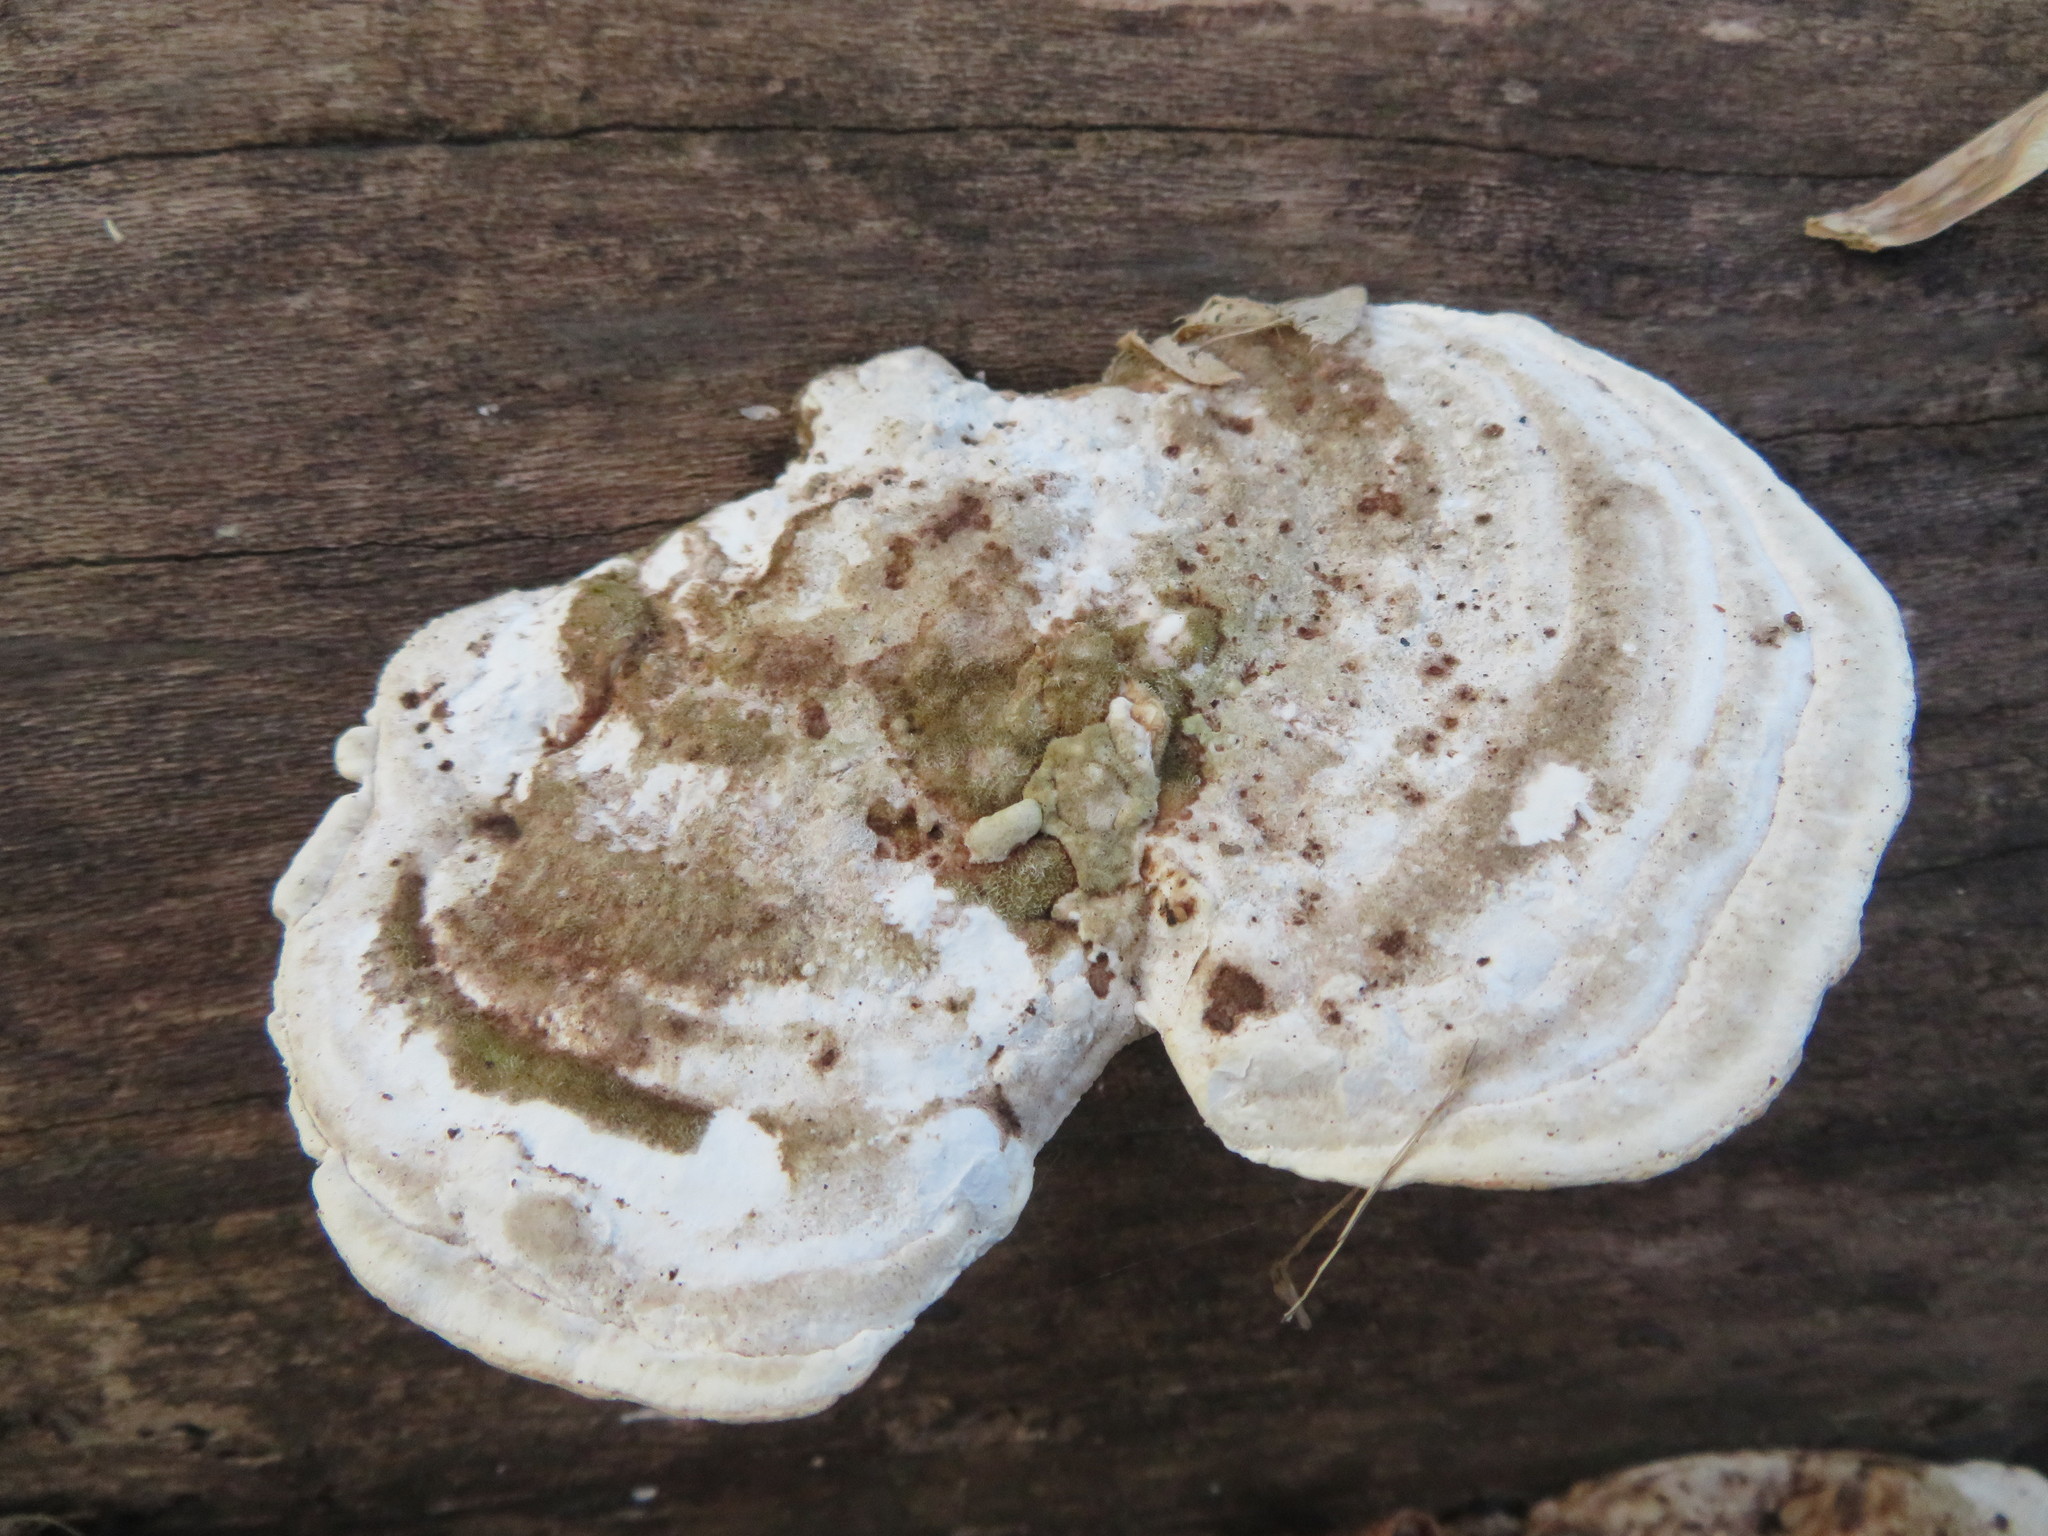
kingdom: Fungi
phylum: Basidiomycota
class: Agaricomycetes
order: Polyporales
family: Polyporaceae
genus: Trametes
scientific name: Trametes gibbosa
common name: Lumpy bracket
